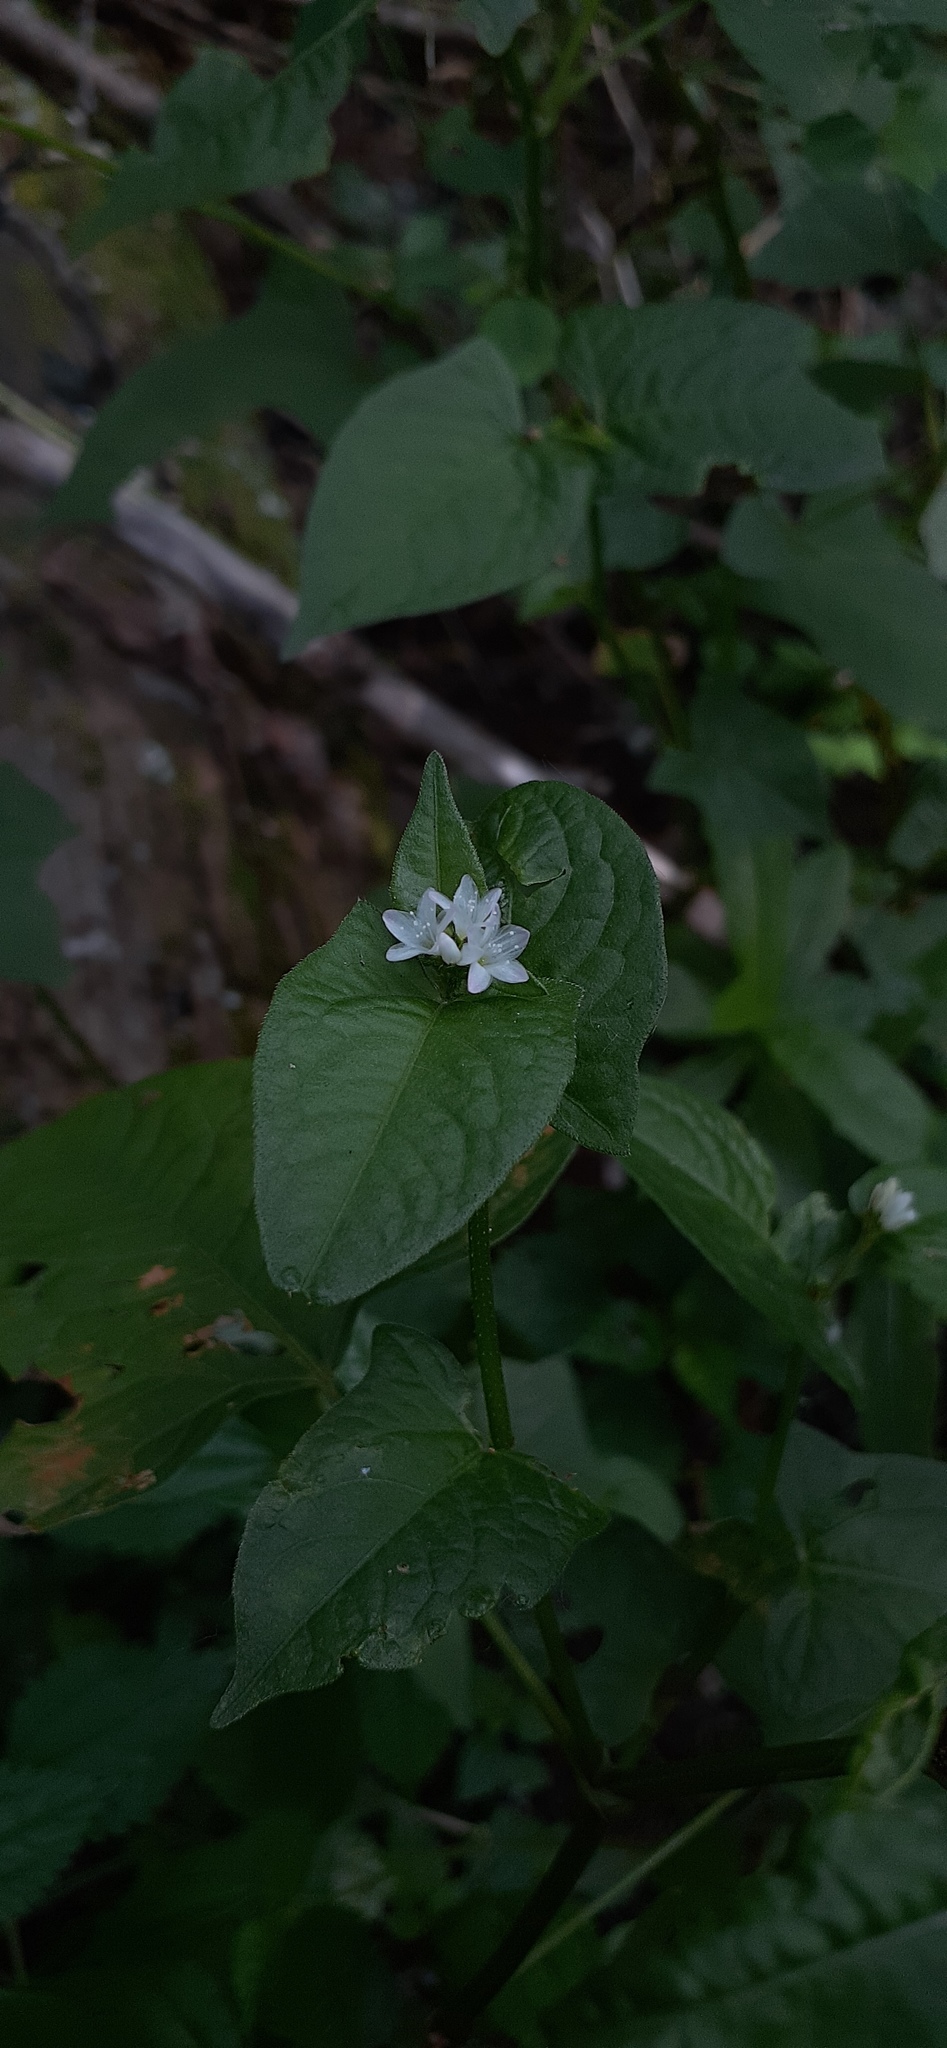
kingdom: Plantae
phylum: Tracheophyta
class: Magnoliopsida
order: Caryophyllales
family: Polygonaceae
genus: Persicaria
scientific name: Persicaria thunbergii
